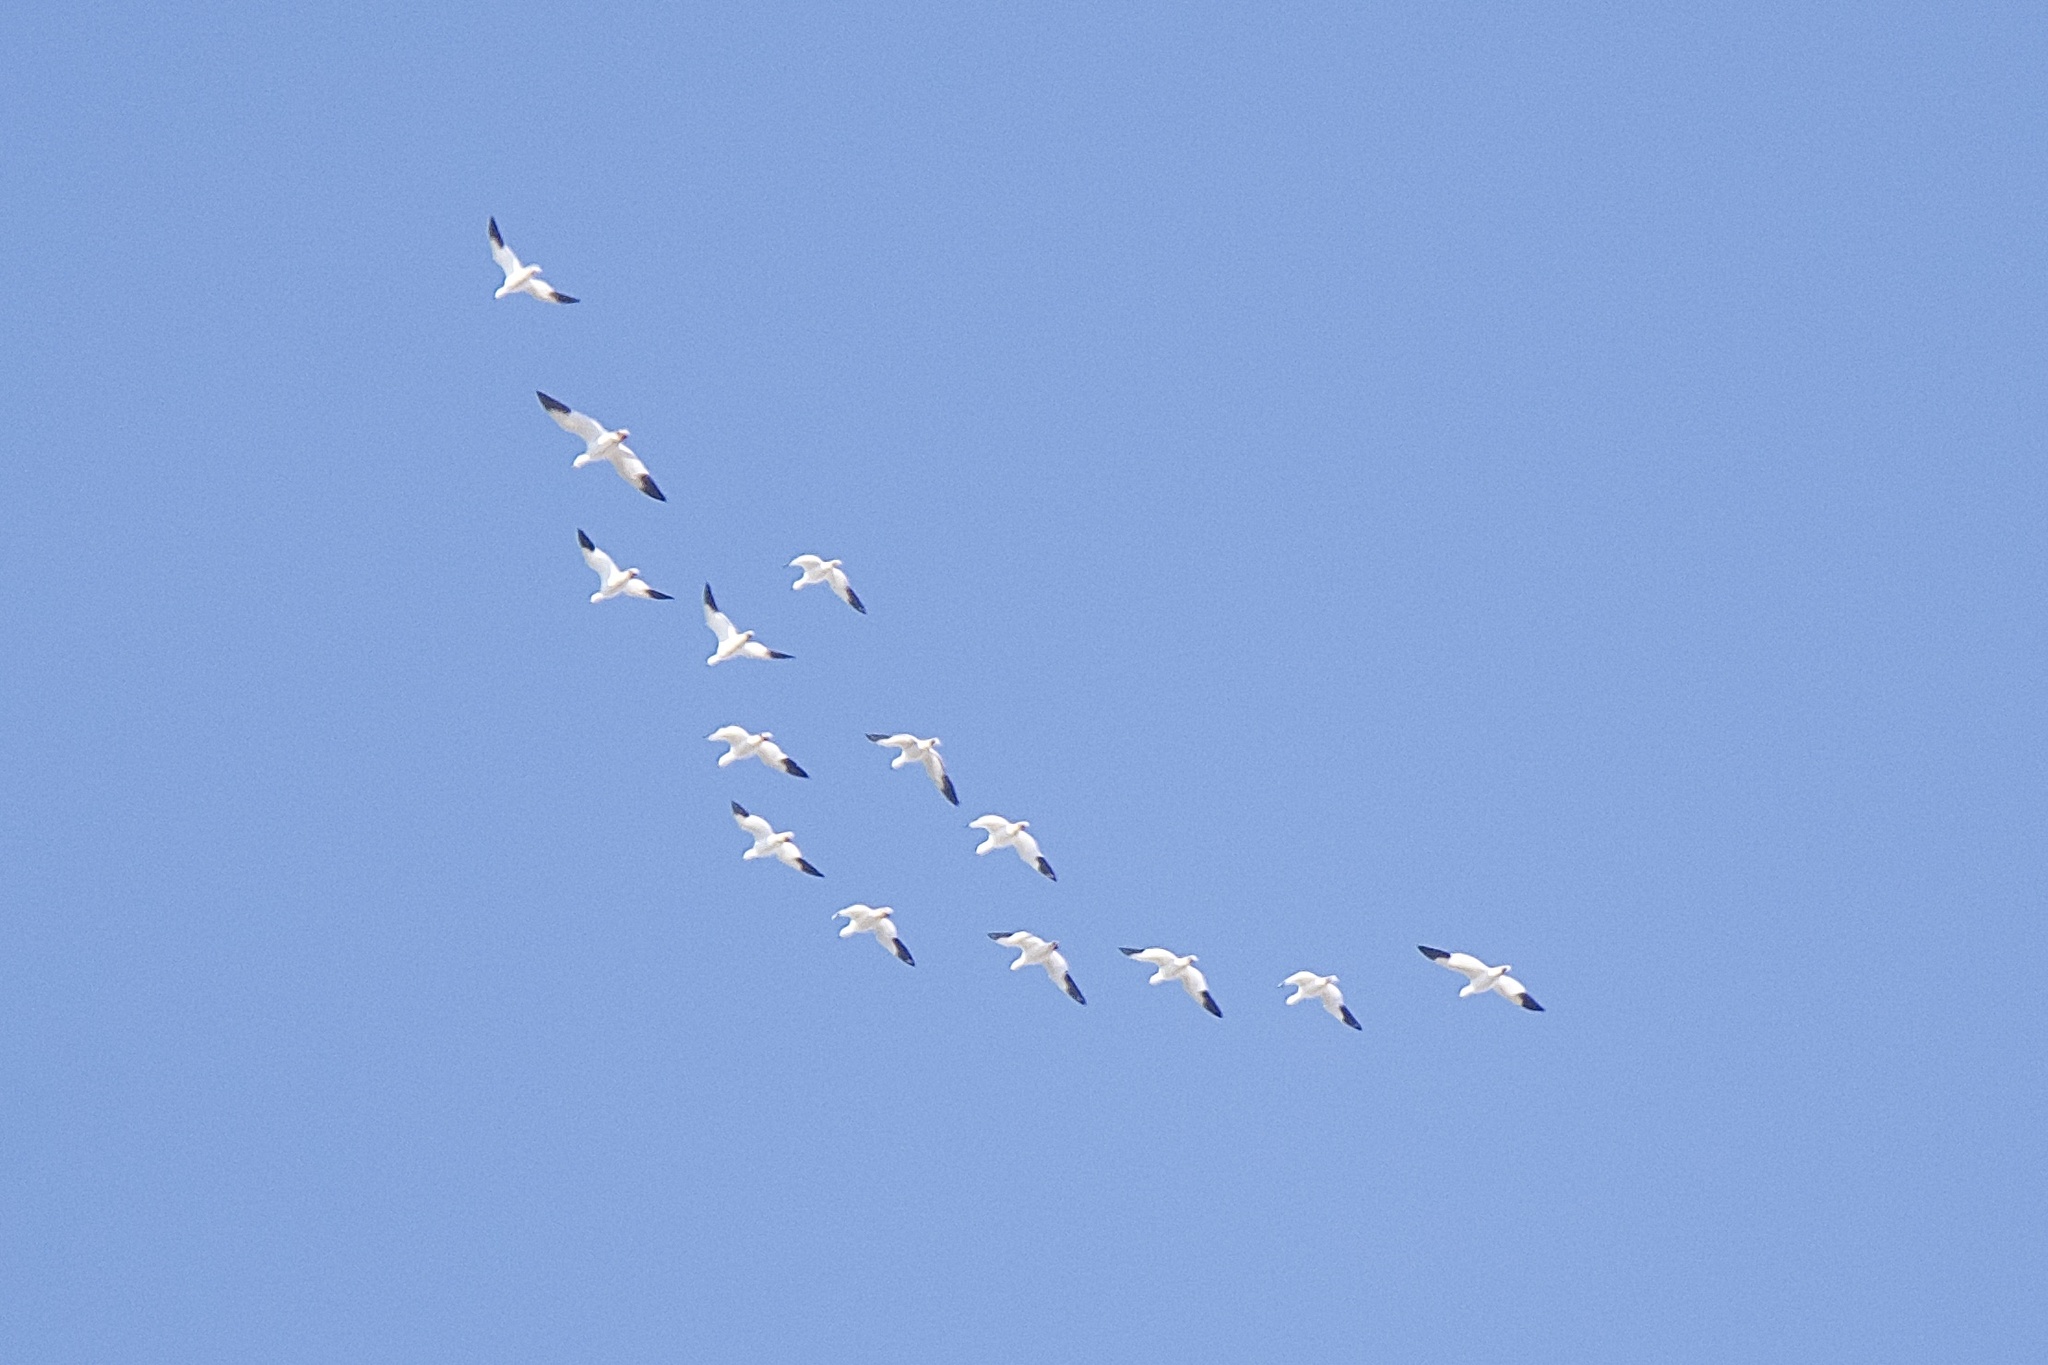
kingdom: Animalia
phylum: Chordata
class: Aves
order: Anseriformes
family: Anatidae
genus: Anser
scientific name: Anser caerulescens
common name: Snow goose
